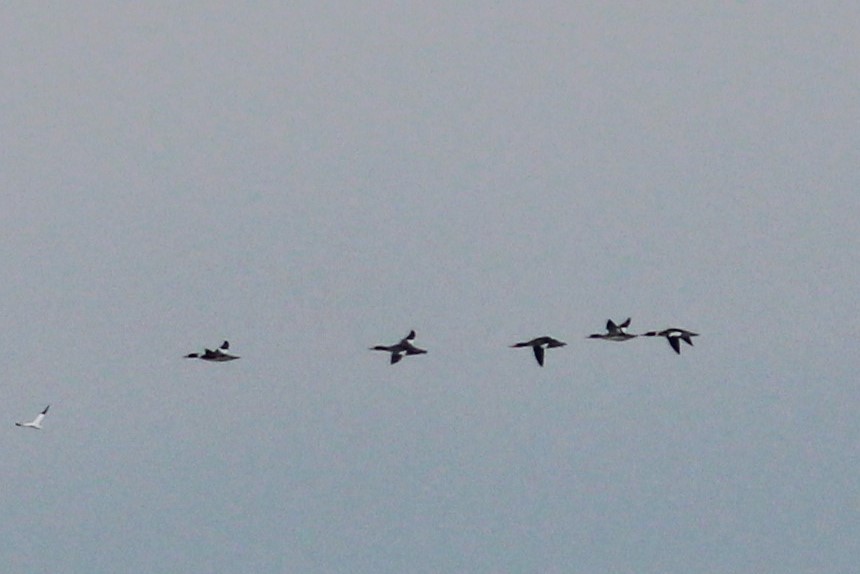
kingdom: Animalia
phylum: Chordata
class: Aves
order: Anseriformes
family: Anatidae
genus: Mergus
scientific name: Mergus serrator
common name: Red-breasted merganser
